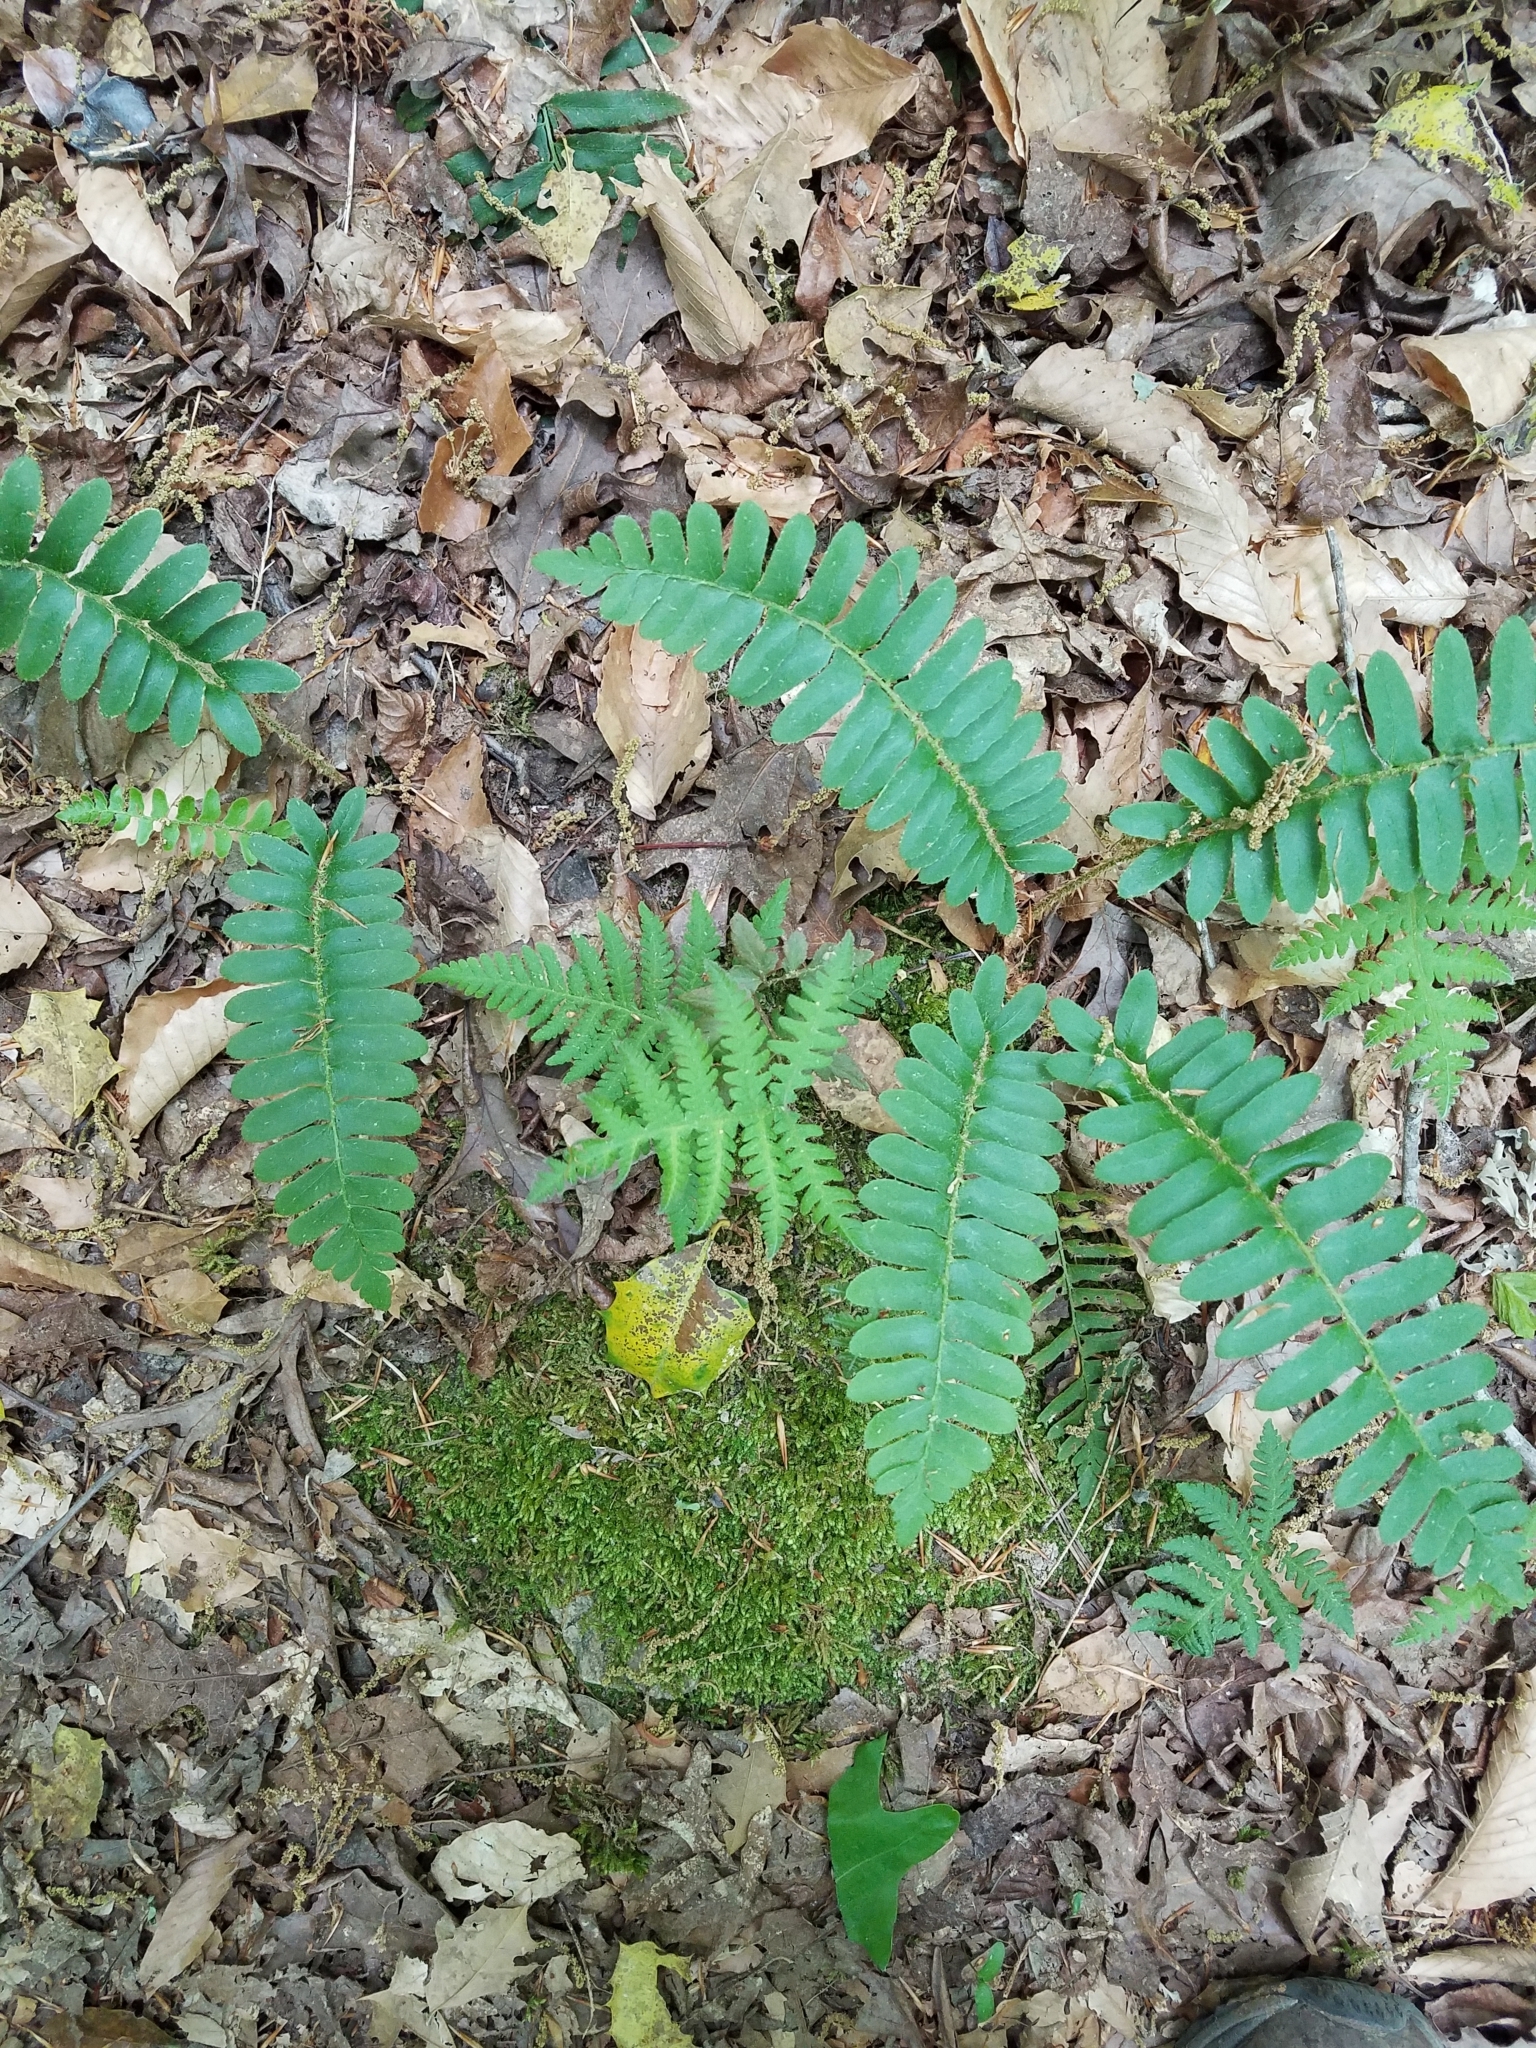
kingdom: Plantae
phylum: Tracheophyta
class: Polypodiopsida
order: Polypodiales
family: Thelypteridaceae
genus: Phegopteris
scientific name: Phegopteris hexagonoptera
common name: Broad beech fern
